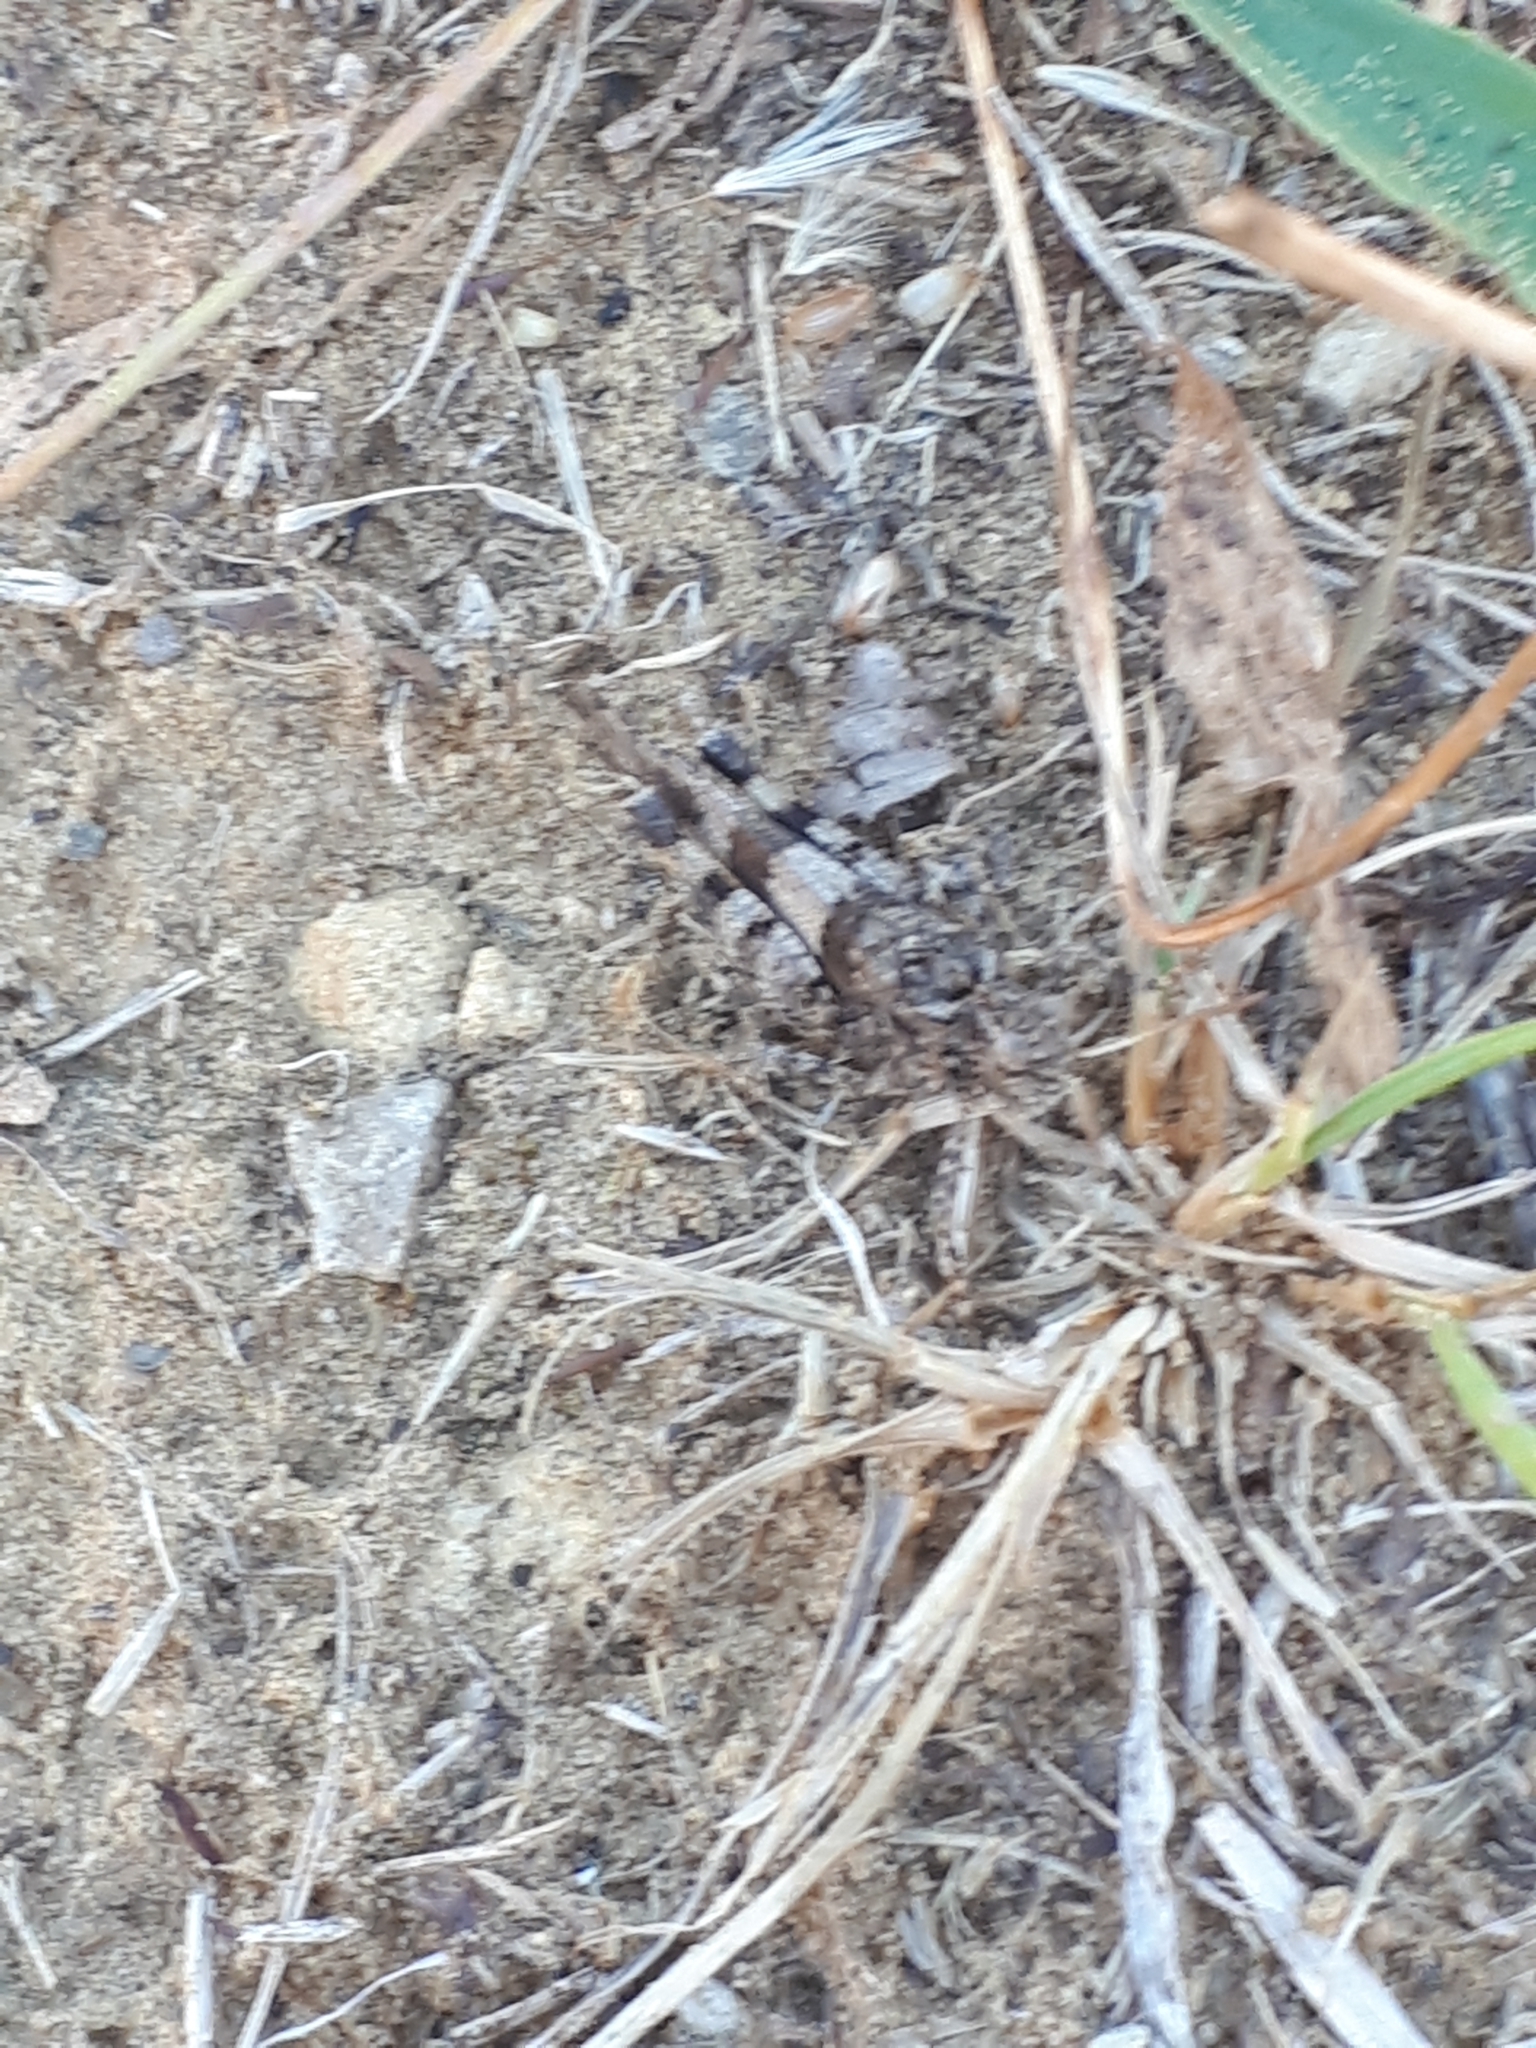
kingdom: Animalia
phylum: Arthropoda
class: Insecta
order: Orthoptera
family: Acrididae
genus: Oedipoda
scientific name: Oedipoda caerulescens
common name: Blue-winged grasshopper
